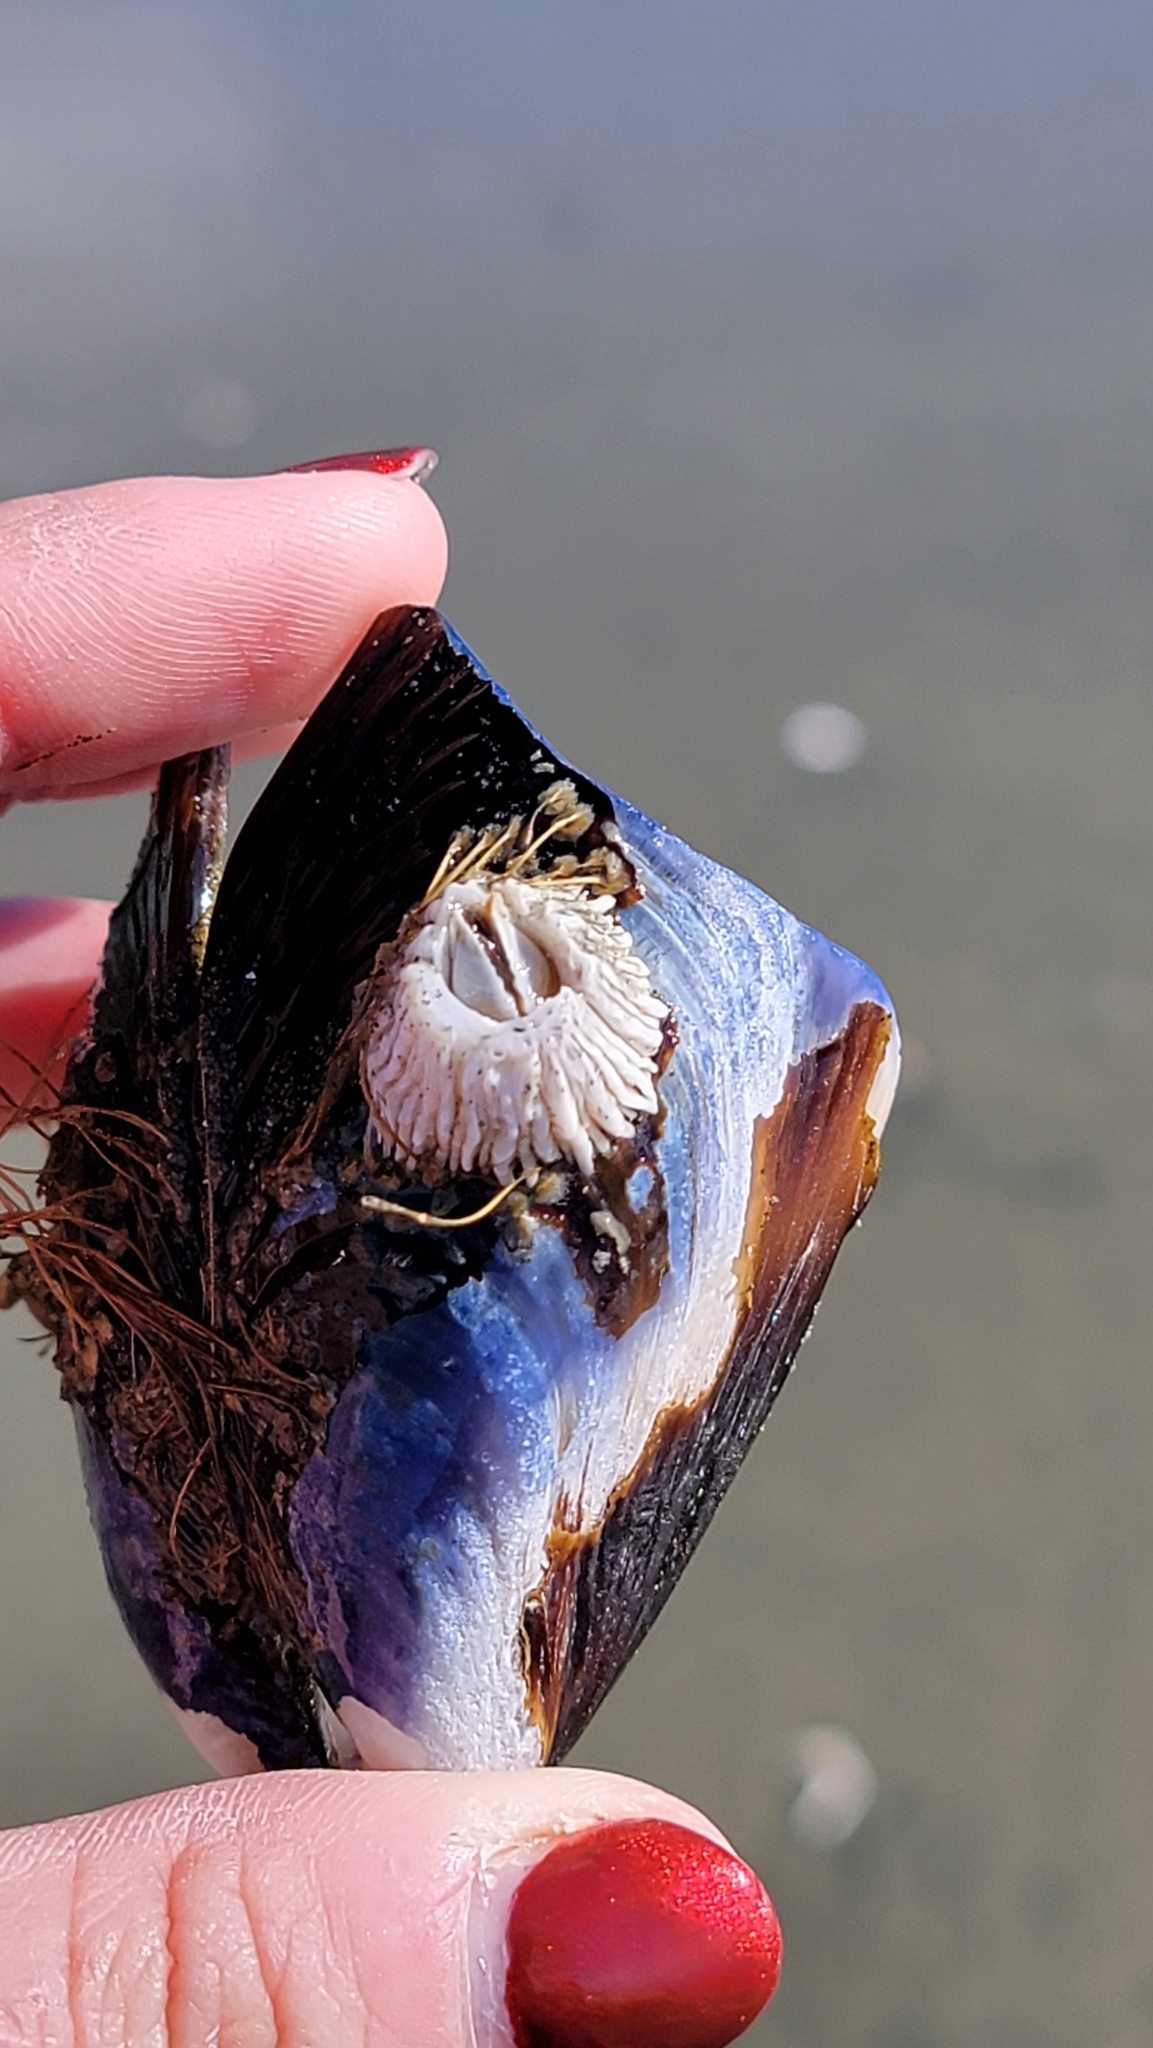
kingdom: Animalia
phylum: Arthropoda
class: Maxillopoda
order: Sessilia
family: Archaeobalanidae
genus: Semibalanus
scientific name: Semibalanus cariosus
